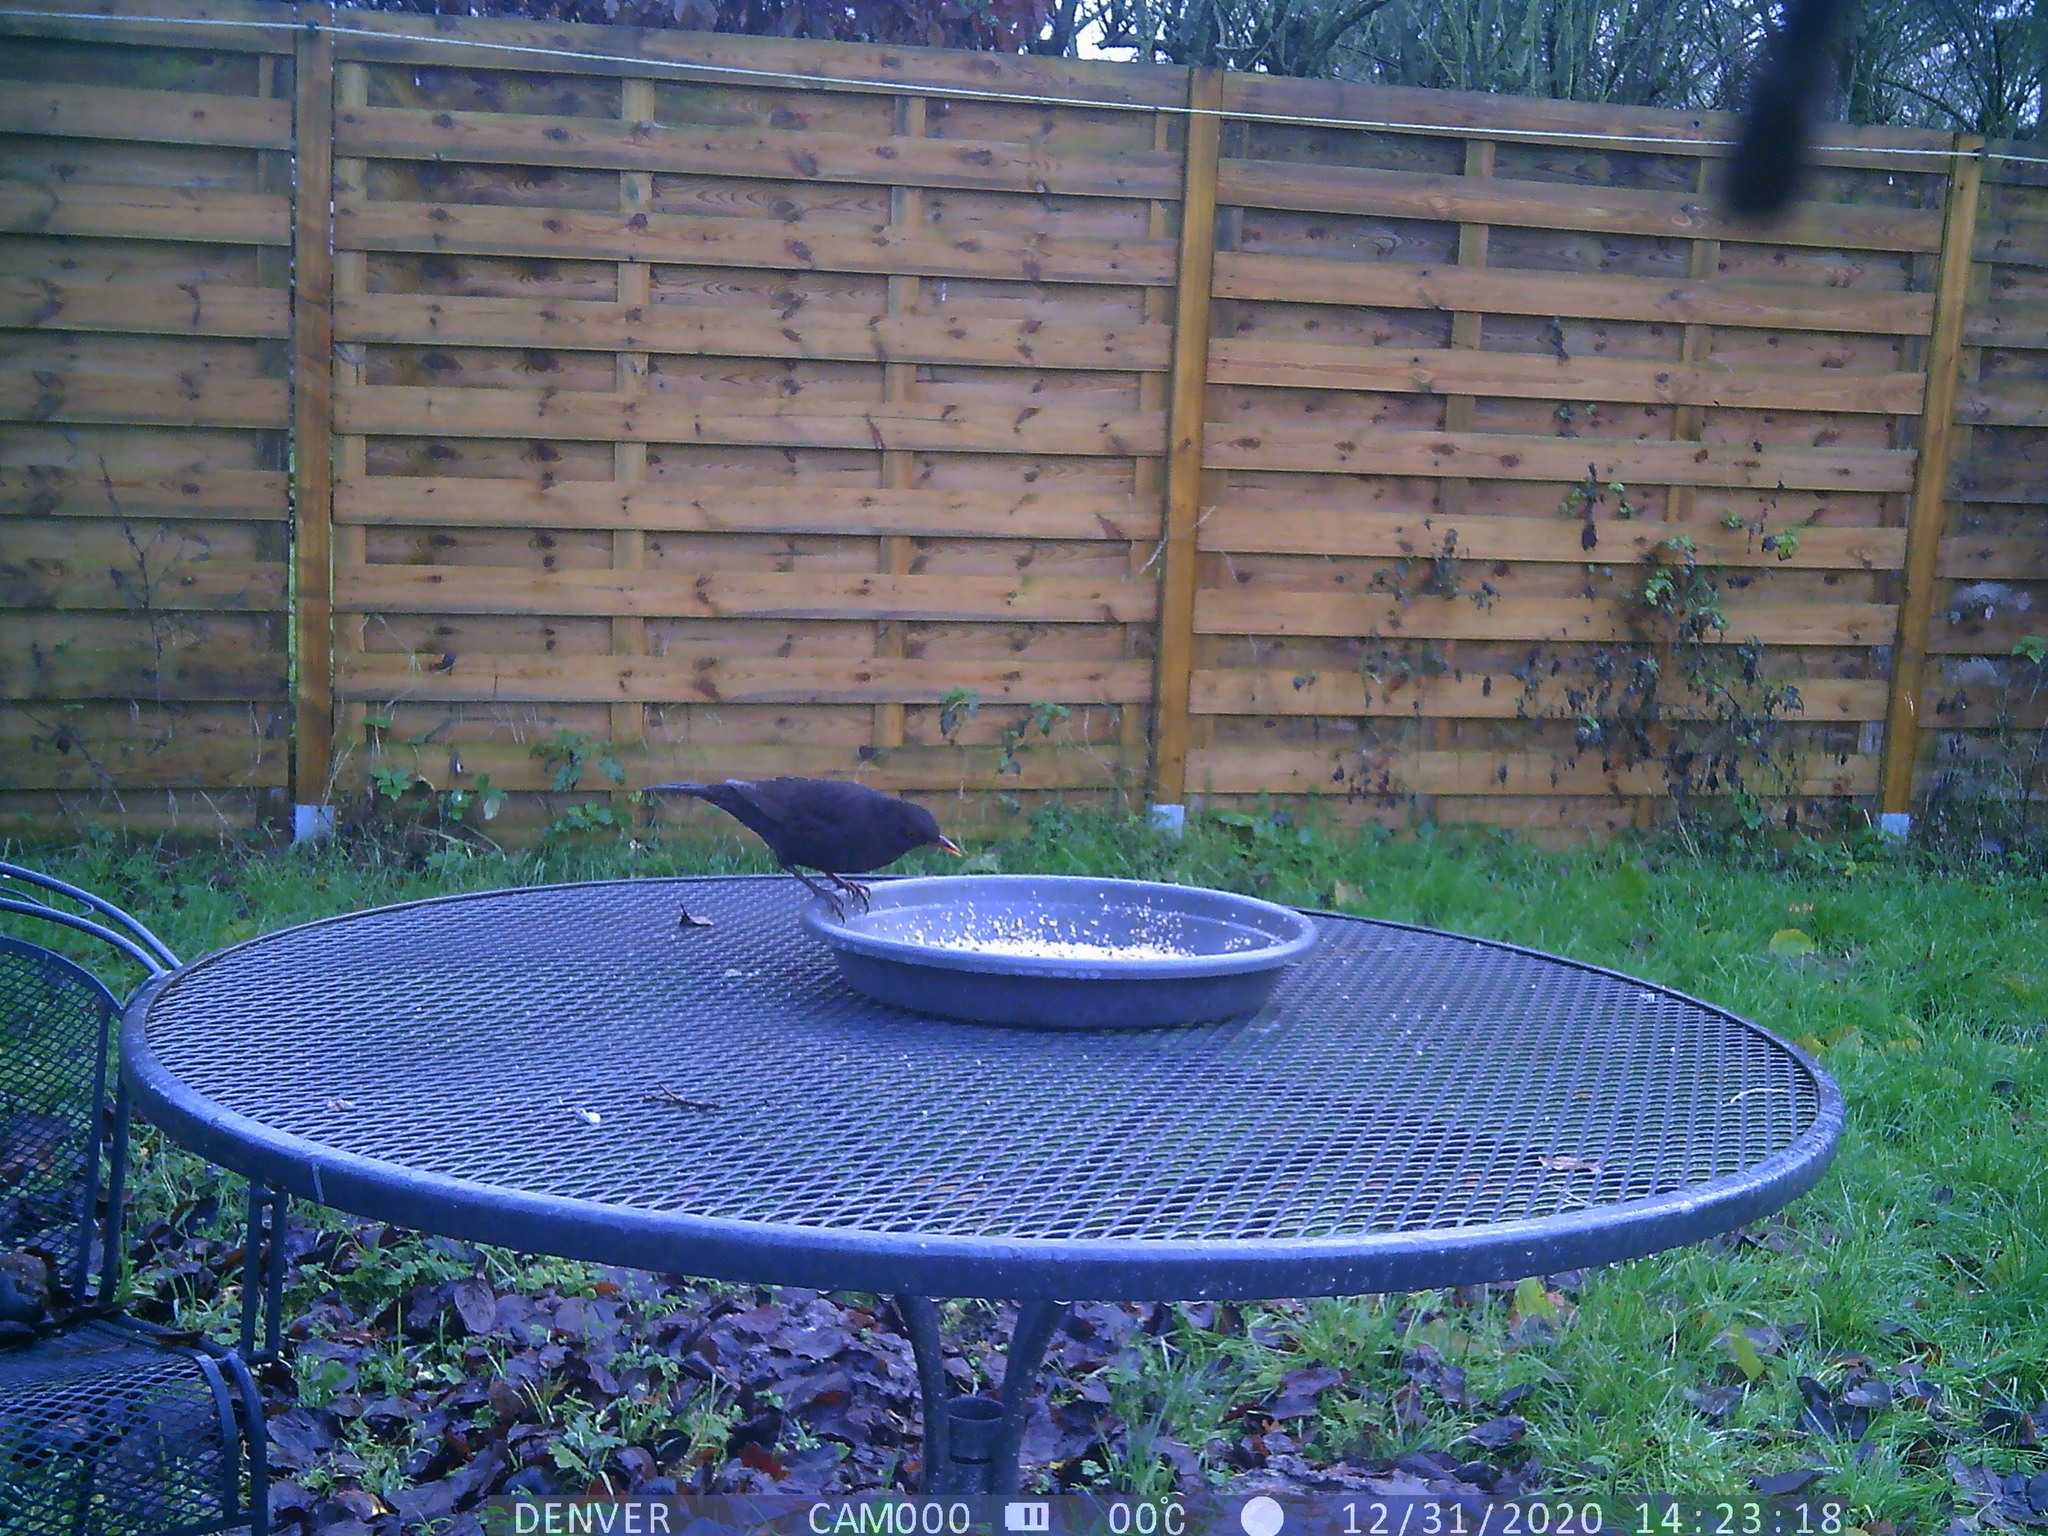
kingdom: Animalia
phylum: Chordata
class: Aves
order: Passeriformes
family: Turdidae
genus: Turdus
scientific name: Turdus merula
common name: Common blackbird
